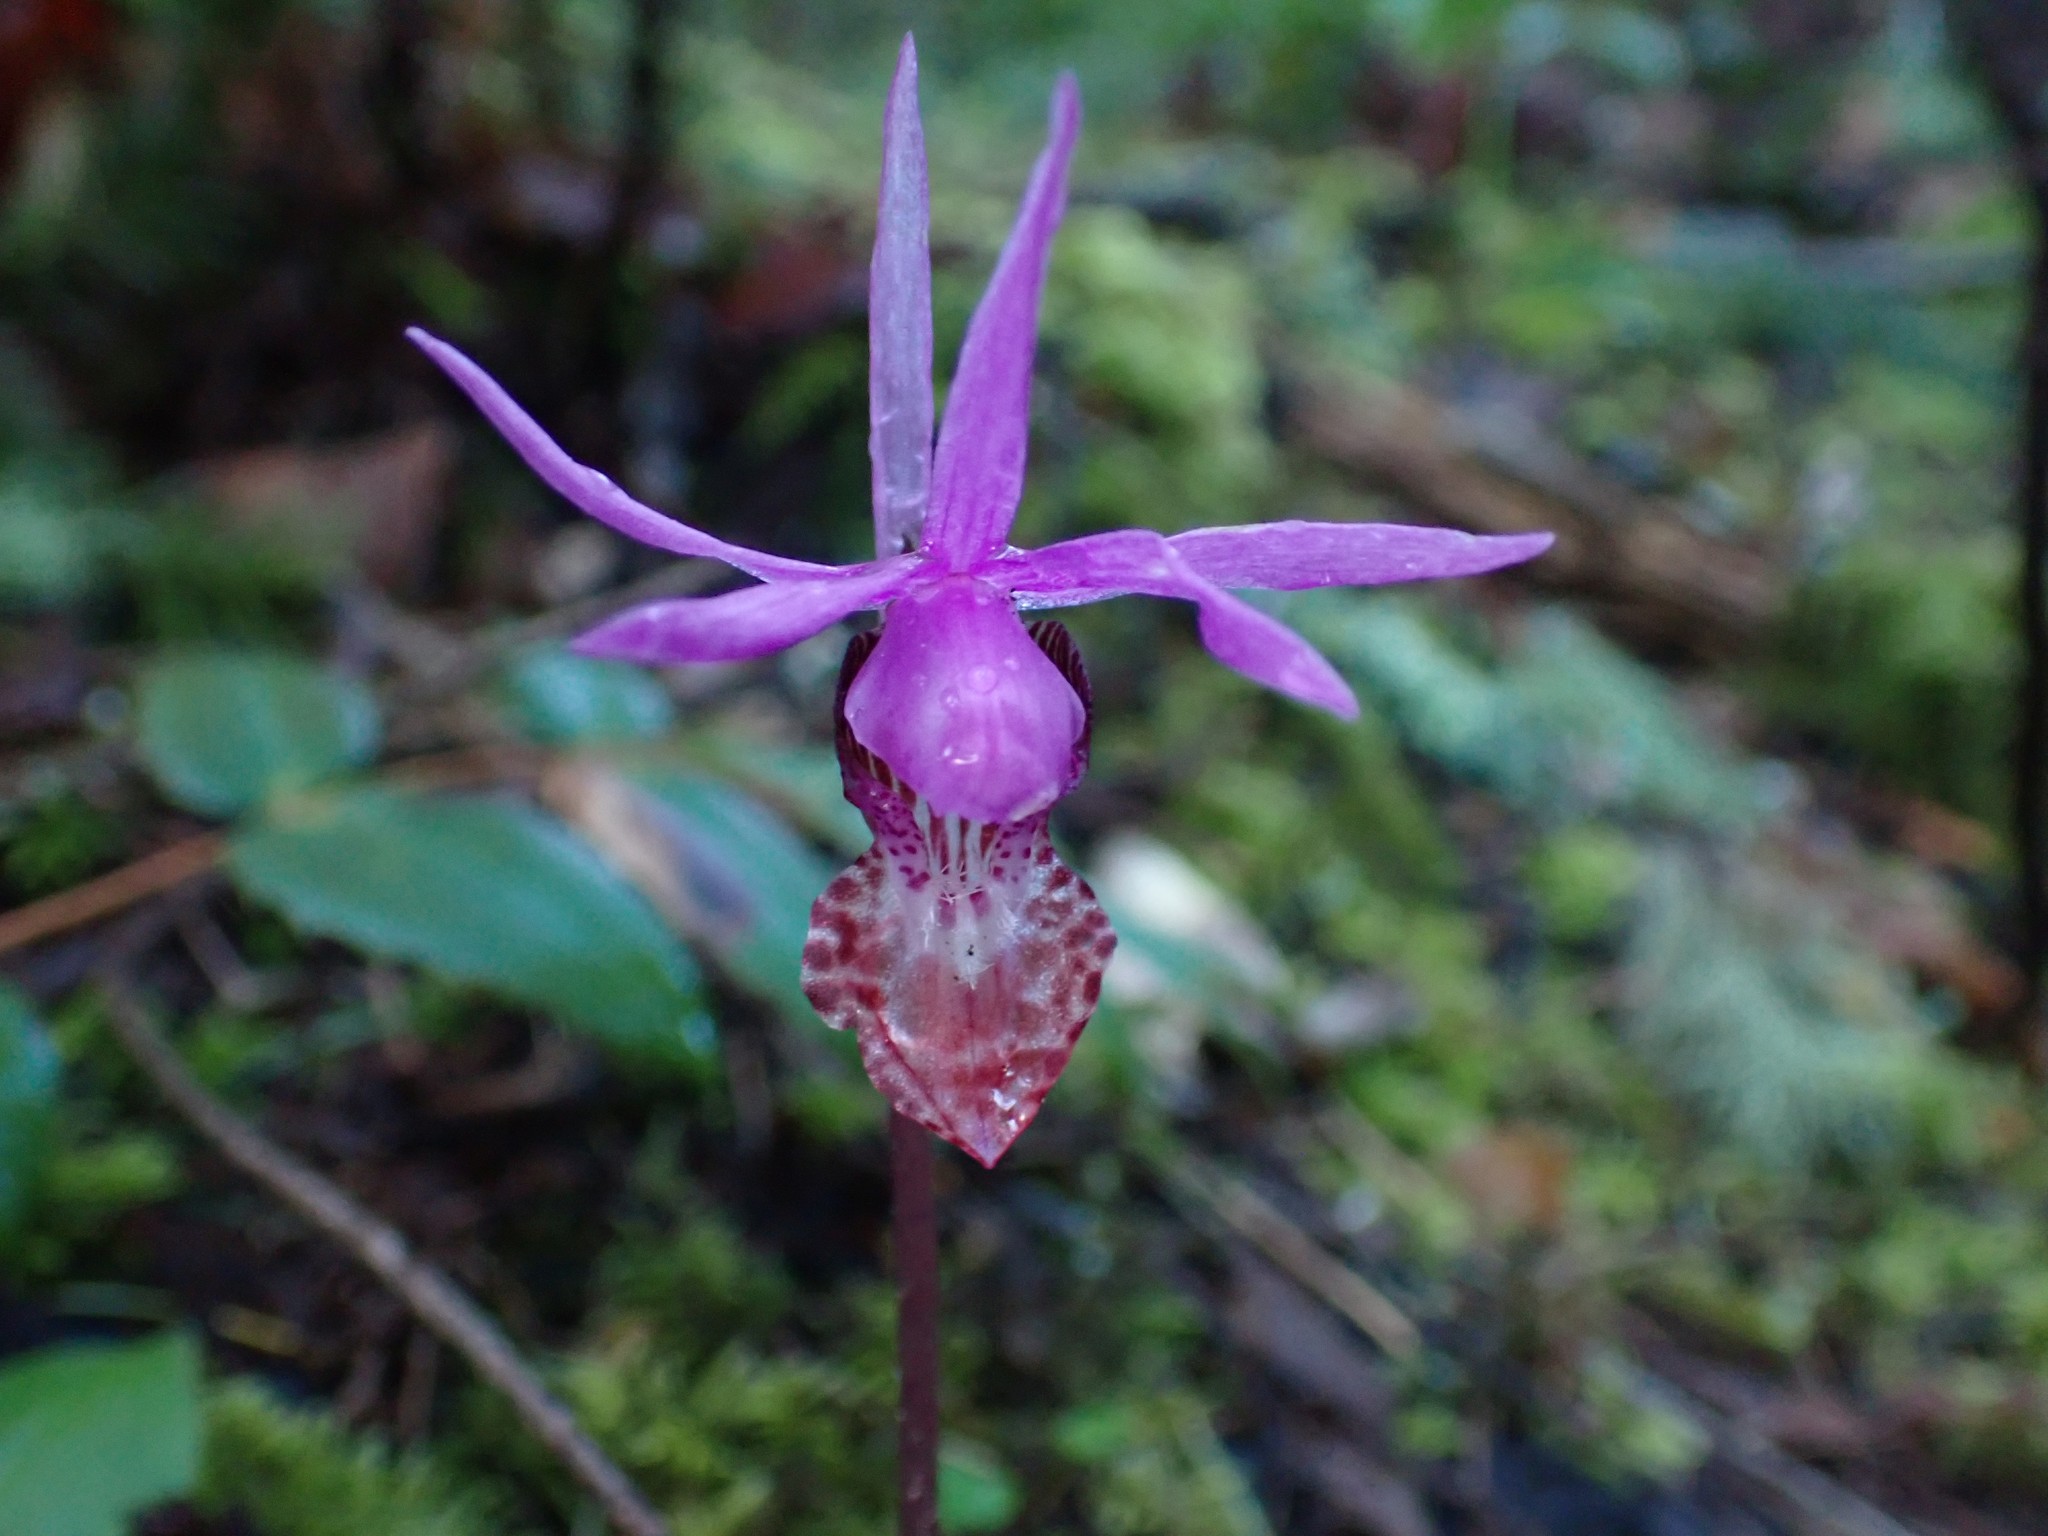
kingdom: Plantae
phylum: Tracheophyta
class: Liliopsida
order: Asparagales
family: Orchidaceae
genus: Calypso
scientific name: Calypso bulbosa
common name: Calypso
